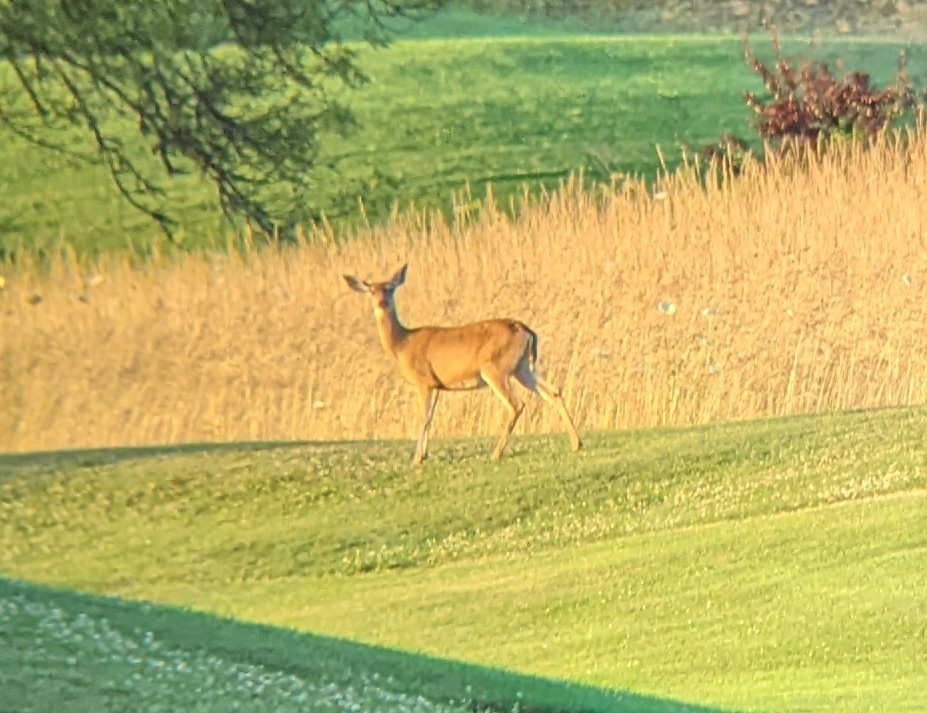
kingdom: Animalia
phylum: Chordata
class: Mammalia
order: Artiodactyla
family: Cervidae
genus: Odocoileus
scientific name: Odocoileus hemionus
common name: Mule deer
